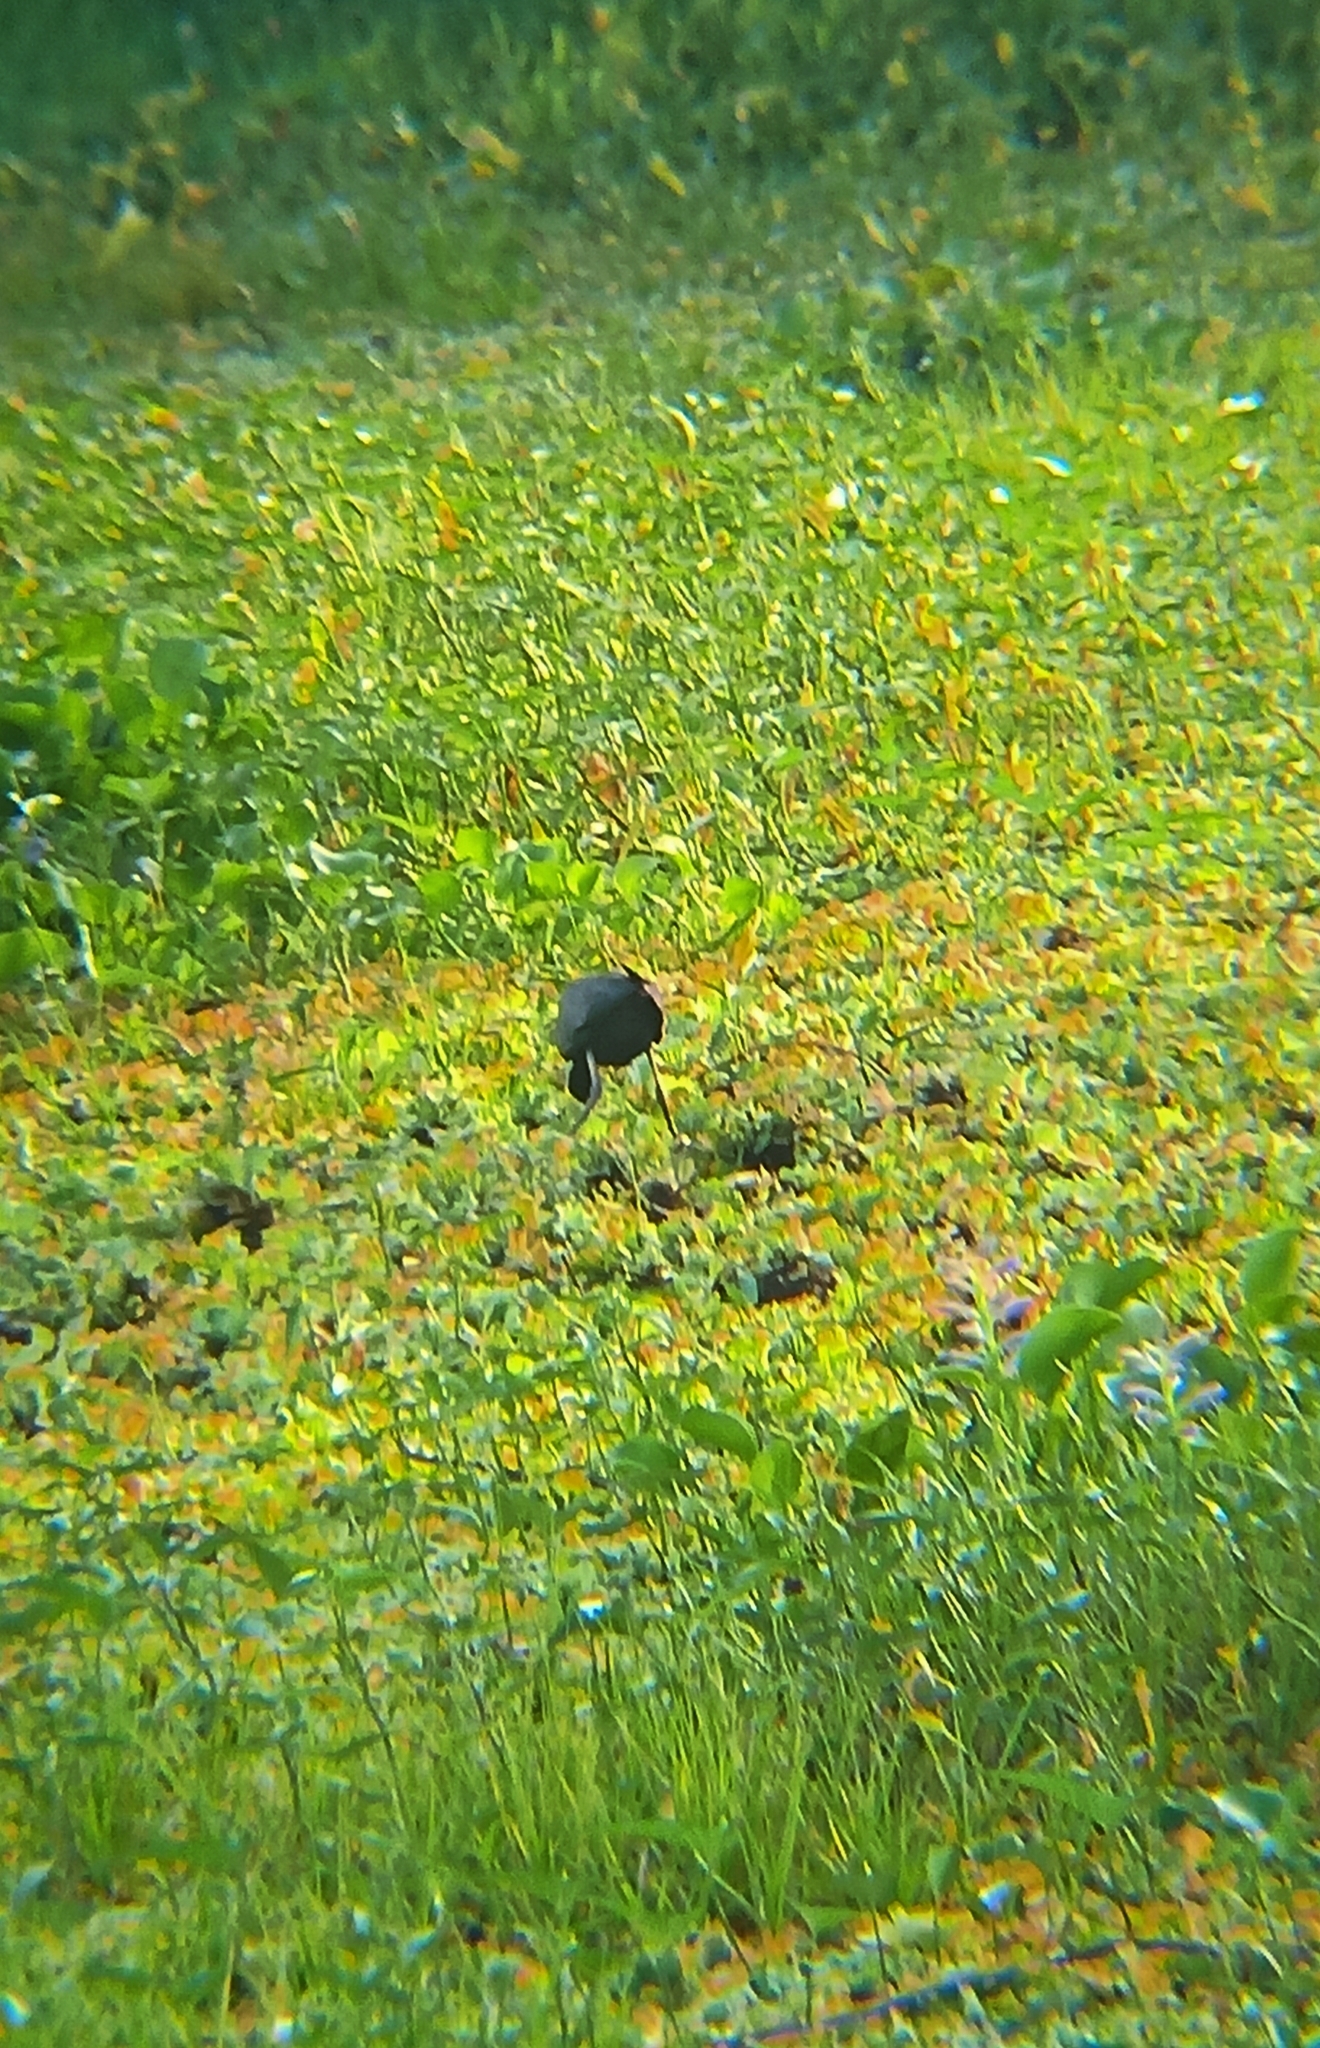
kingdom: Animalia
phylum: Chordata
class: Aves
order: Charadriiformes
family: Jacanidae
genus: Metopidius
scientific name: Metopidius indicus
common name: Bronze-winged jacana
